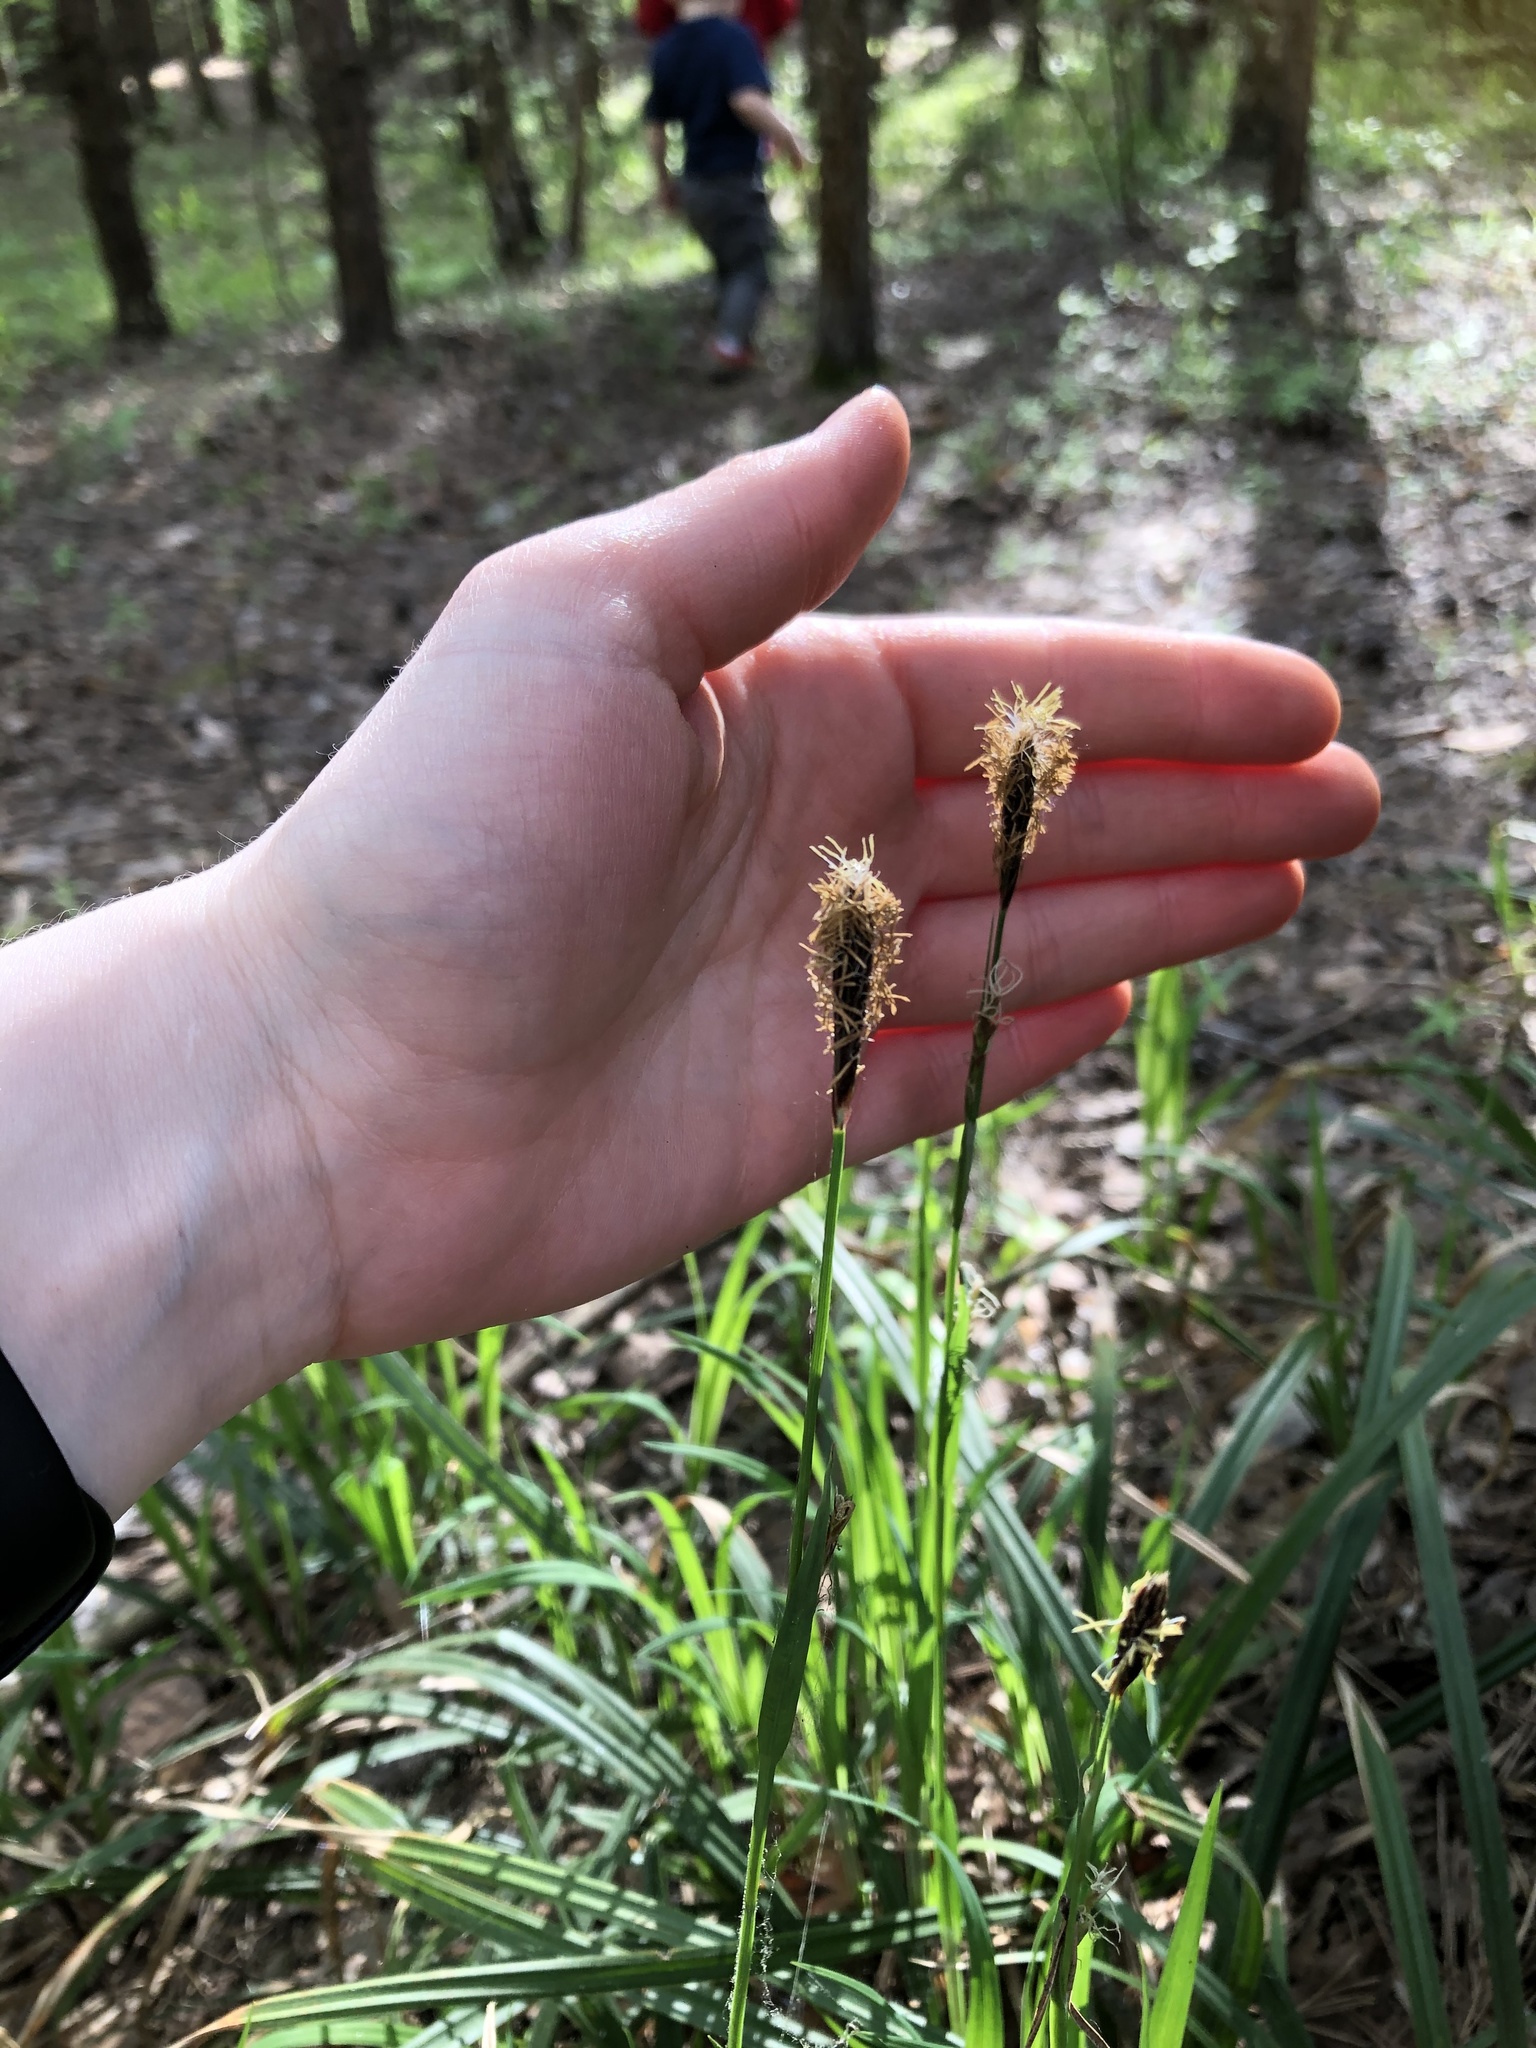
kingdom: Plantae
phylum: Tracheophyta
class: Liliopsida
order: Poales
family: Cyperaceae
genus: Carex
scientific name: Carex pilosa
